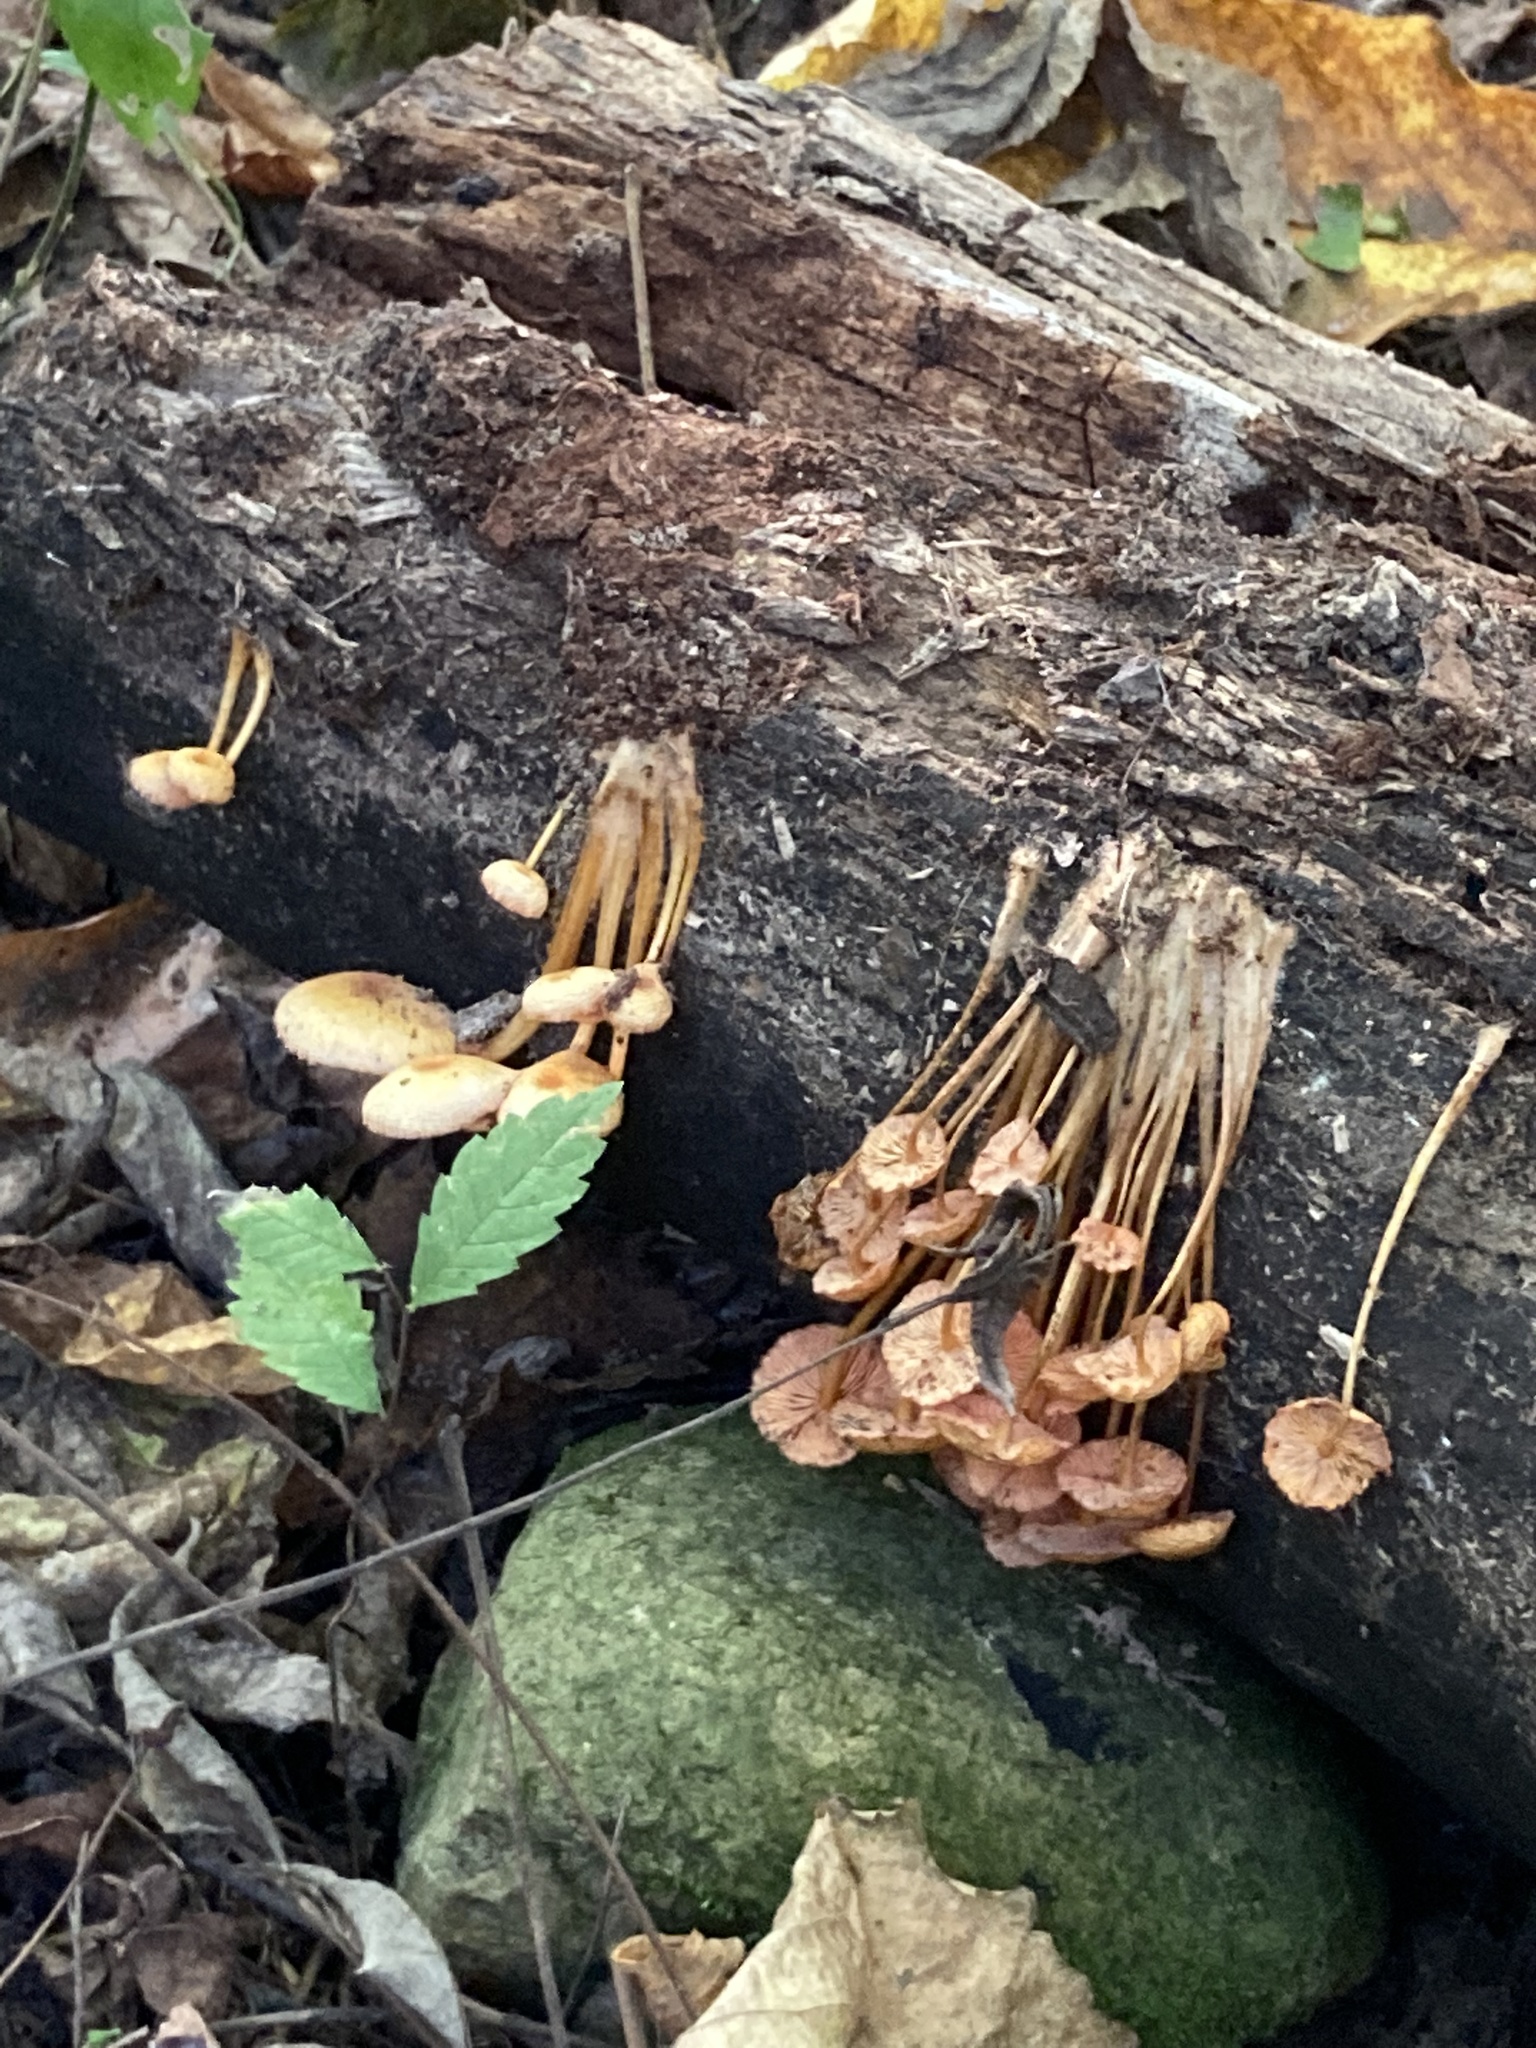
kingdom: Fungi
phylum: Basidiomycota
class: Agaricomycetes
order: Agaricales
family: Mycenaceae
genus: Mycena
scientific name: Mycena leaiana
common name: Orange mycena
